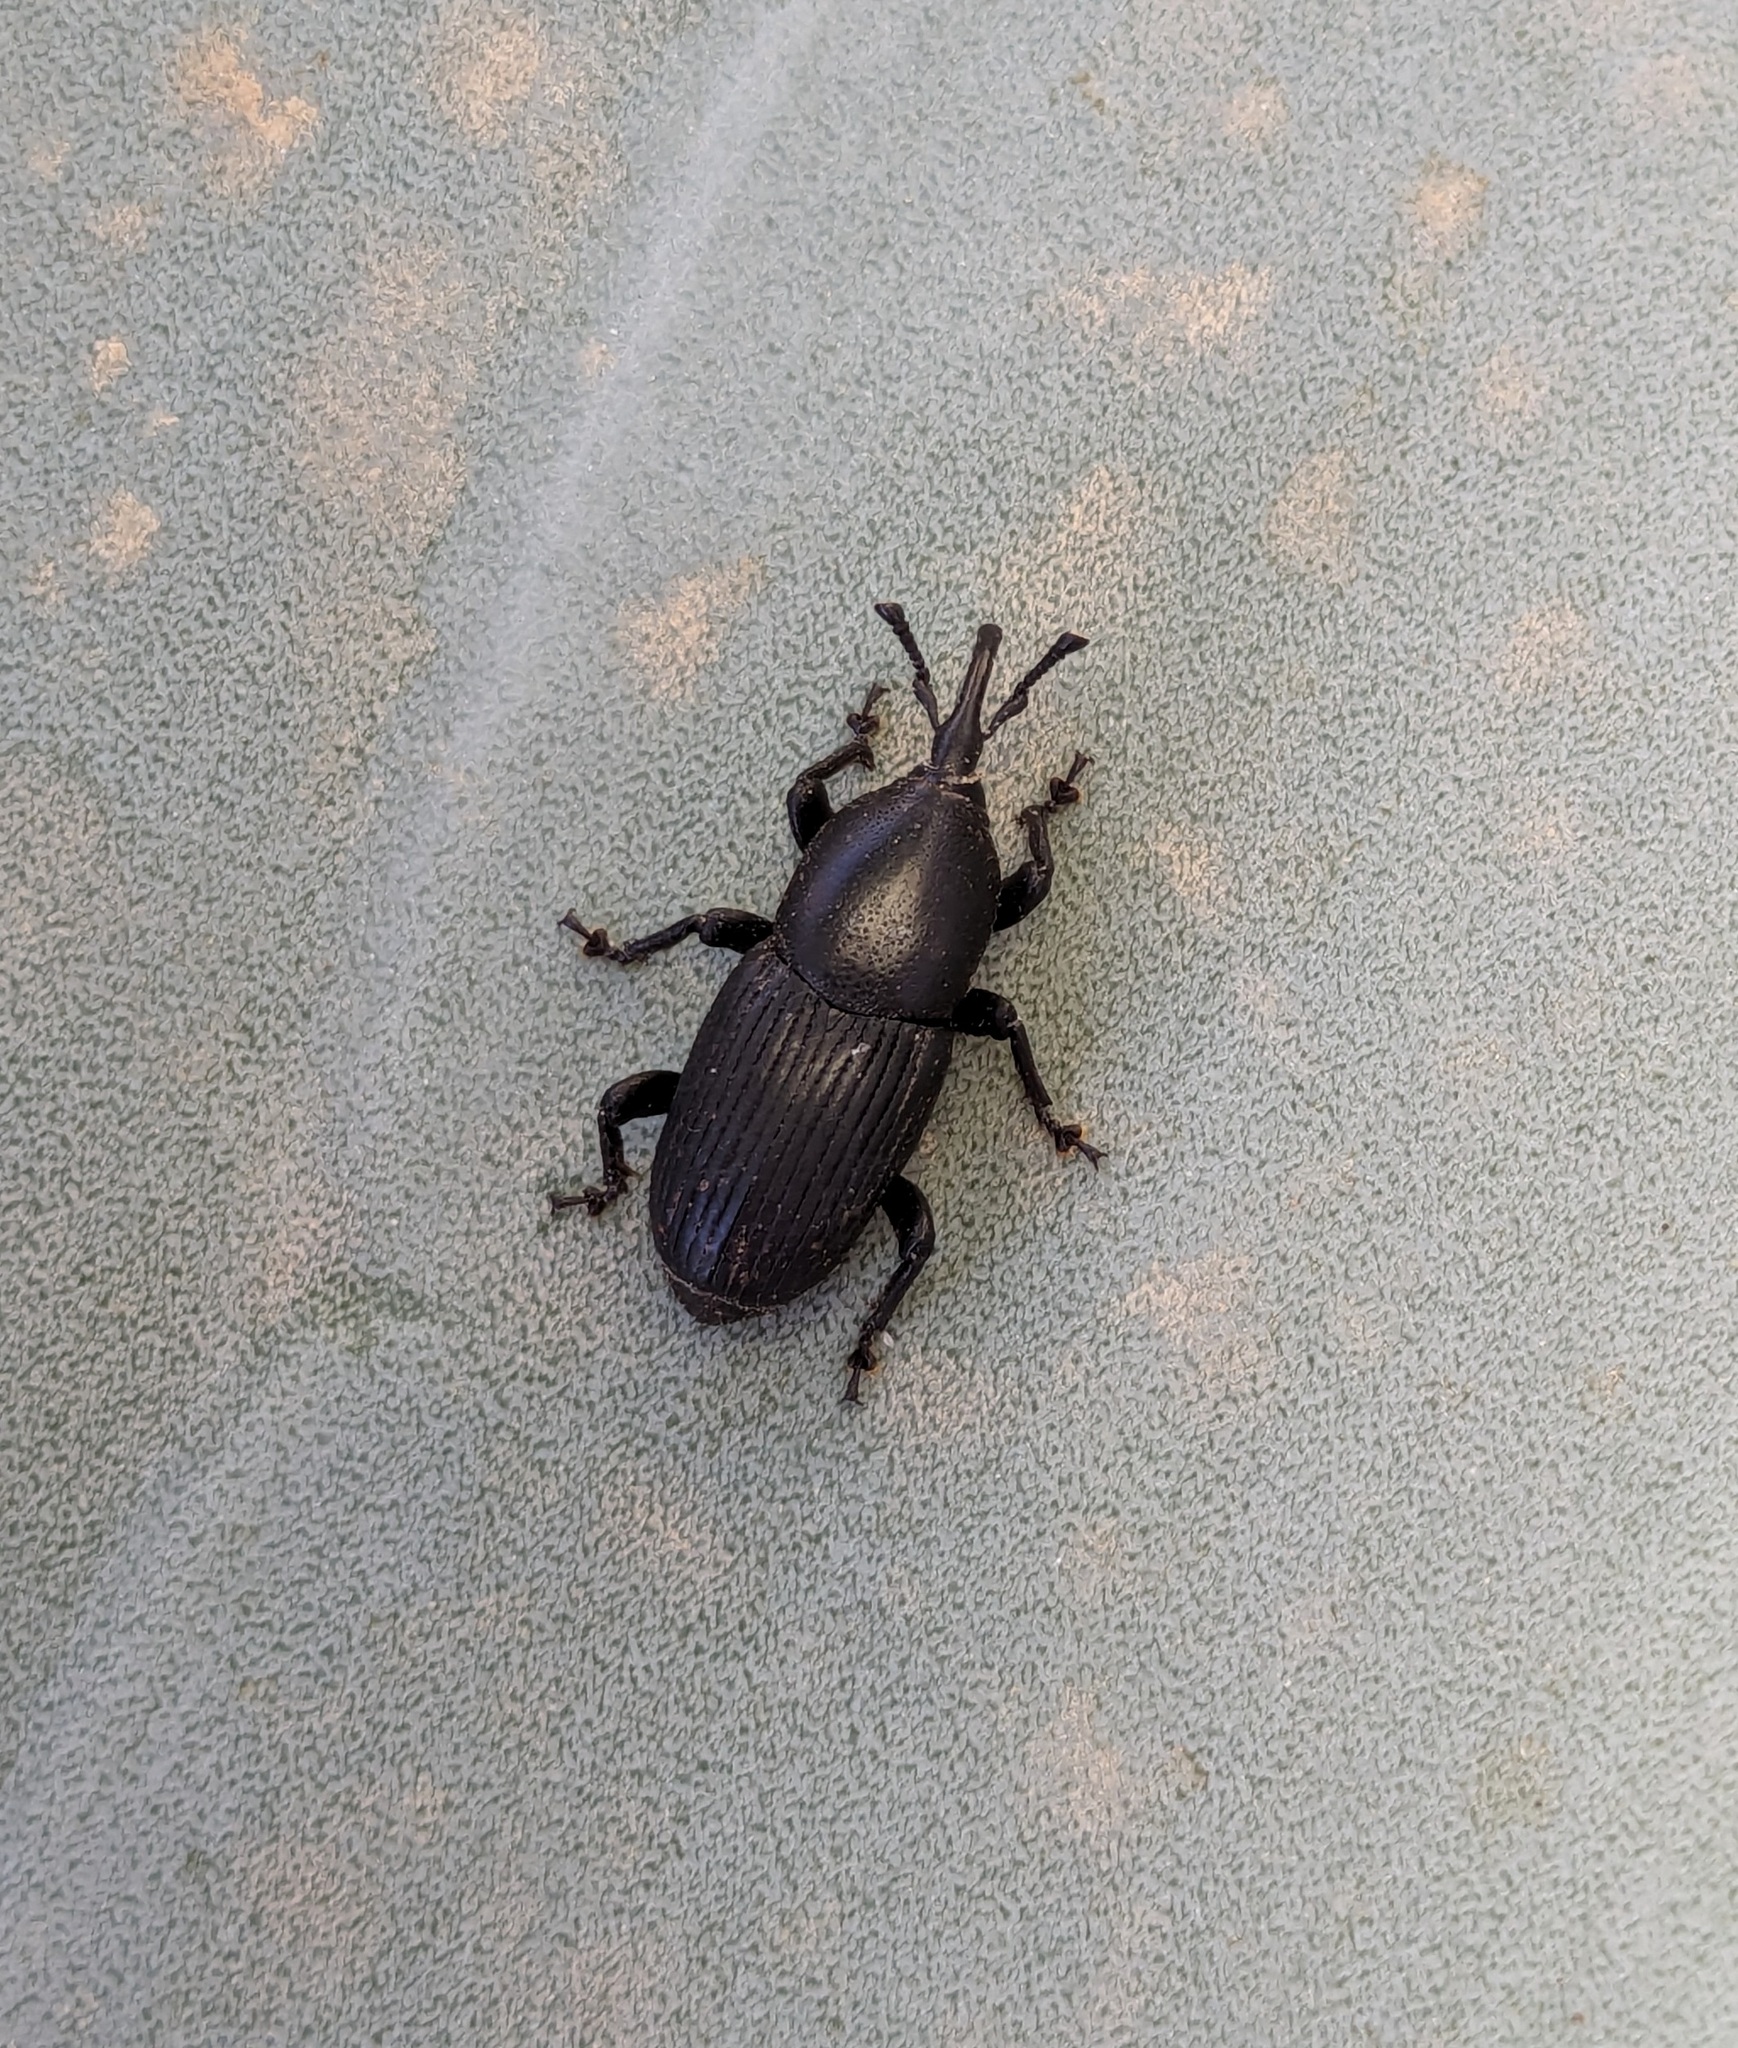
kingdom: Animalia
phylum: Arthropoda
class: Insecta
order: Coleoptera
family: Dryophthoridae
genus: Scyphophorus
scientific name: Scyphophorus acupunctatus
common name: Weevil
